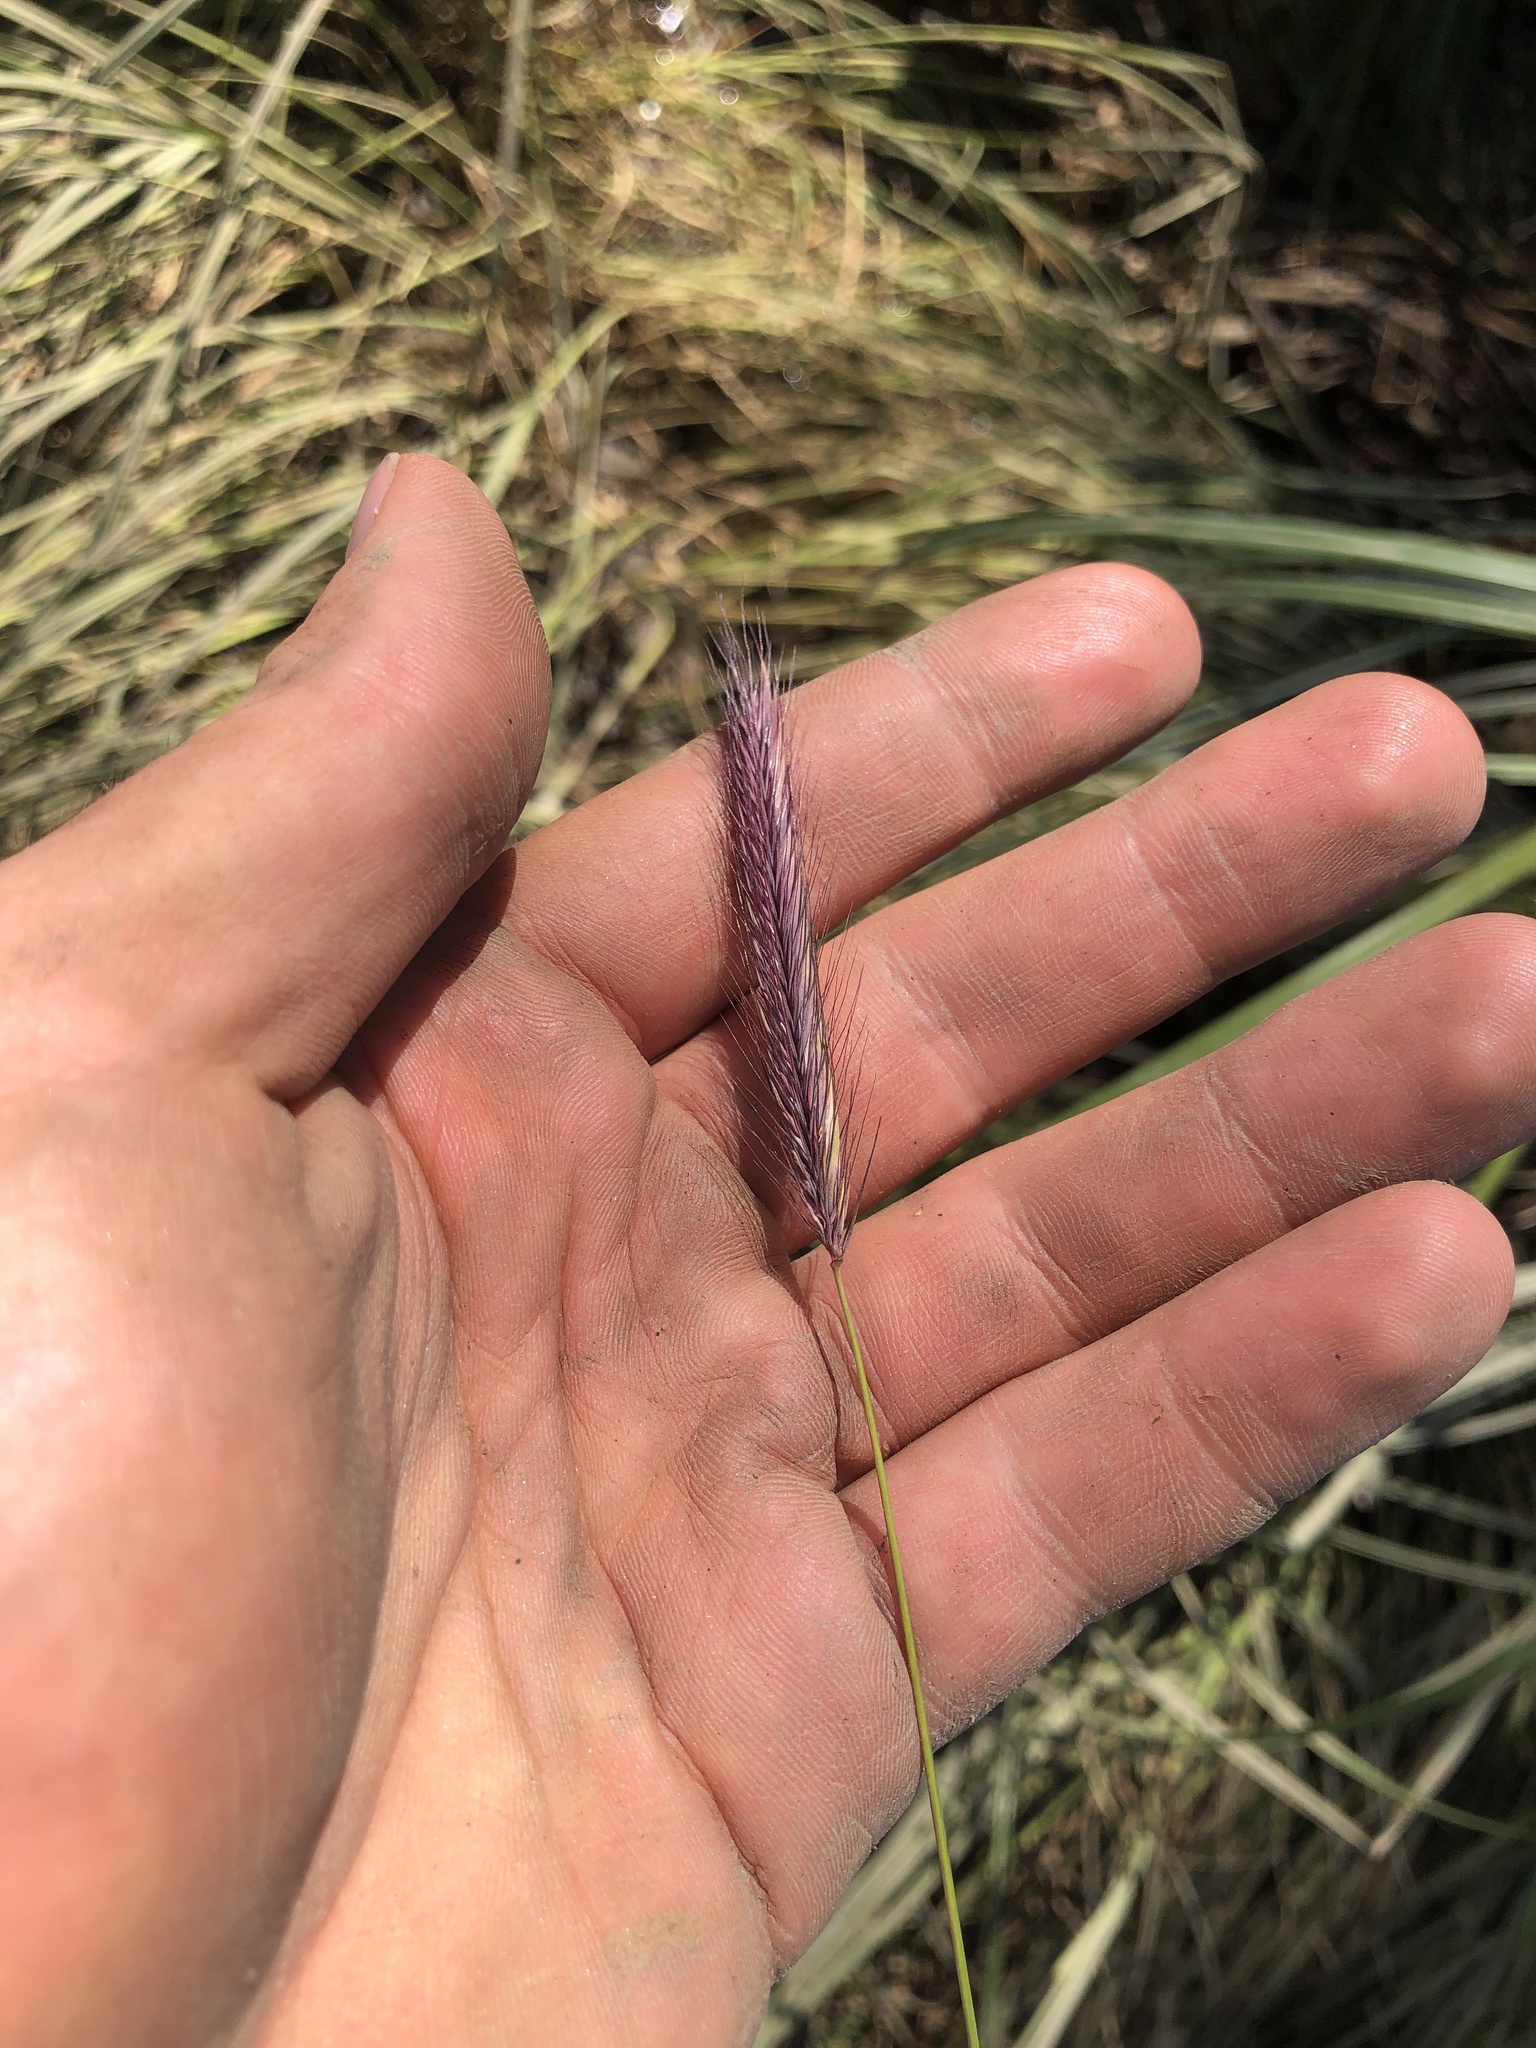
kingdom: Plantae
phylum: Tracheophyta
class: Liliopsida
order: Poales
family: Poaceae
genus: Hordeum
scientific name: Hordeum brachyantherum
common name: Meadow barley
